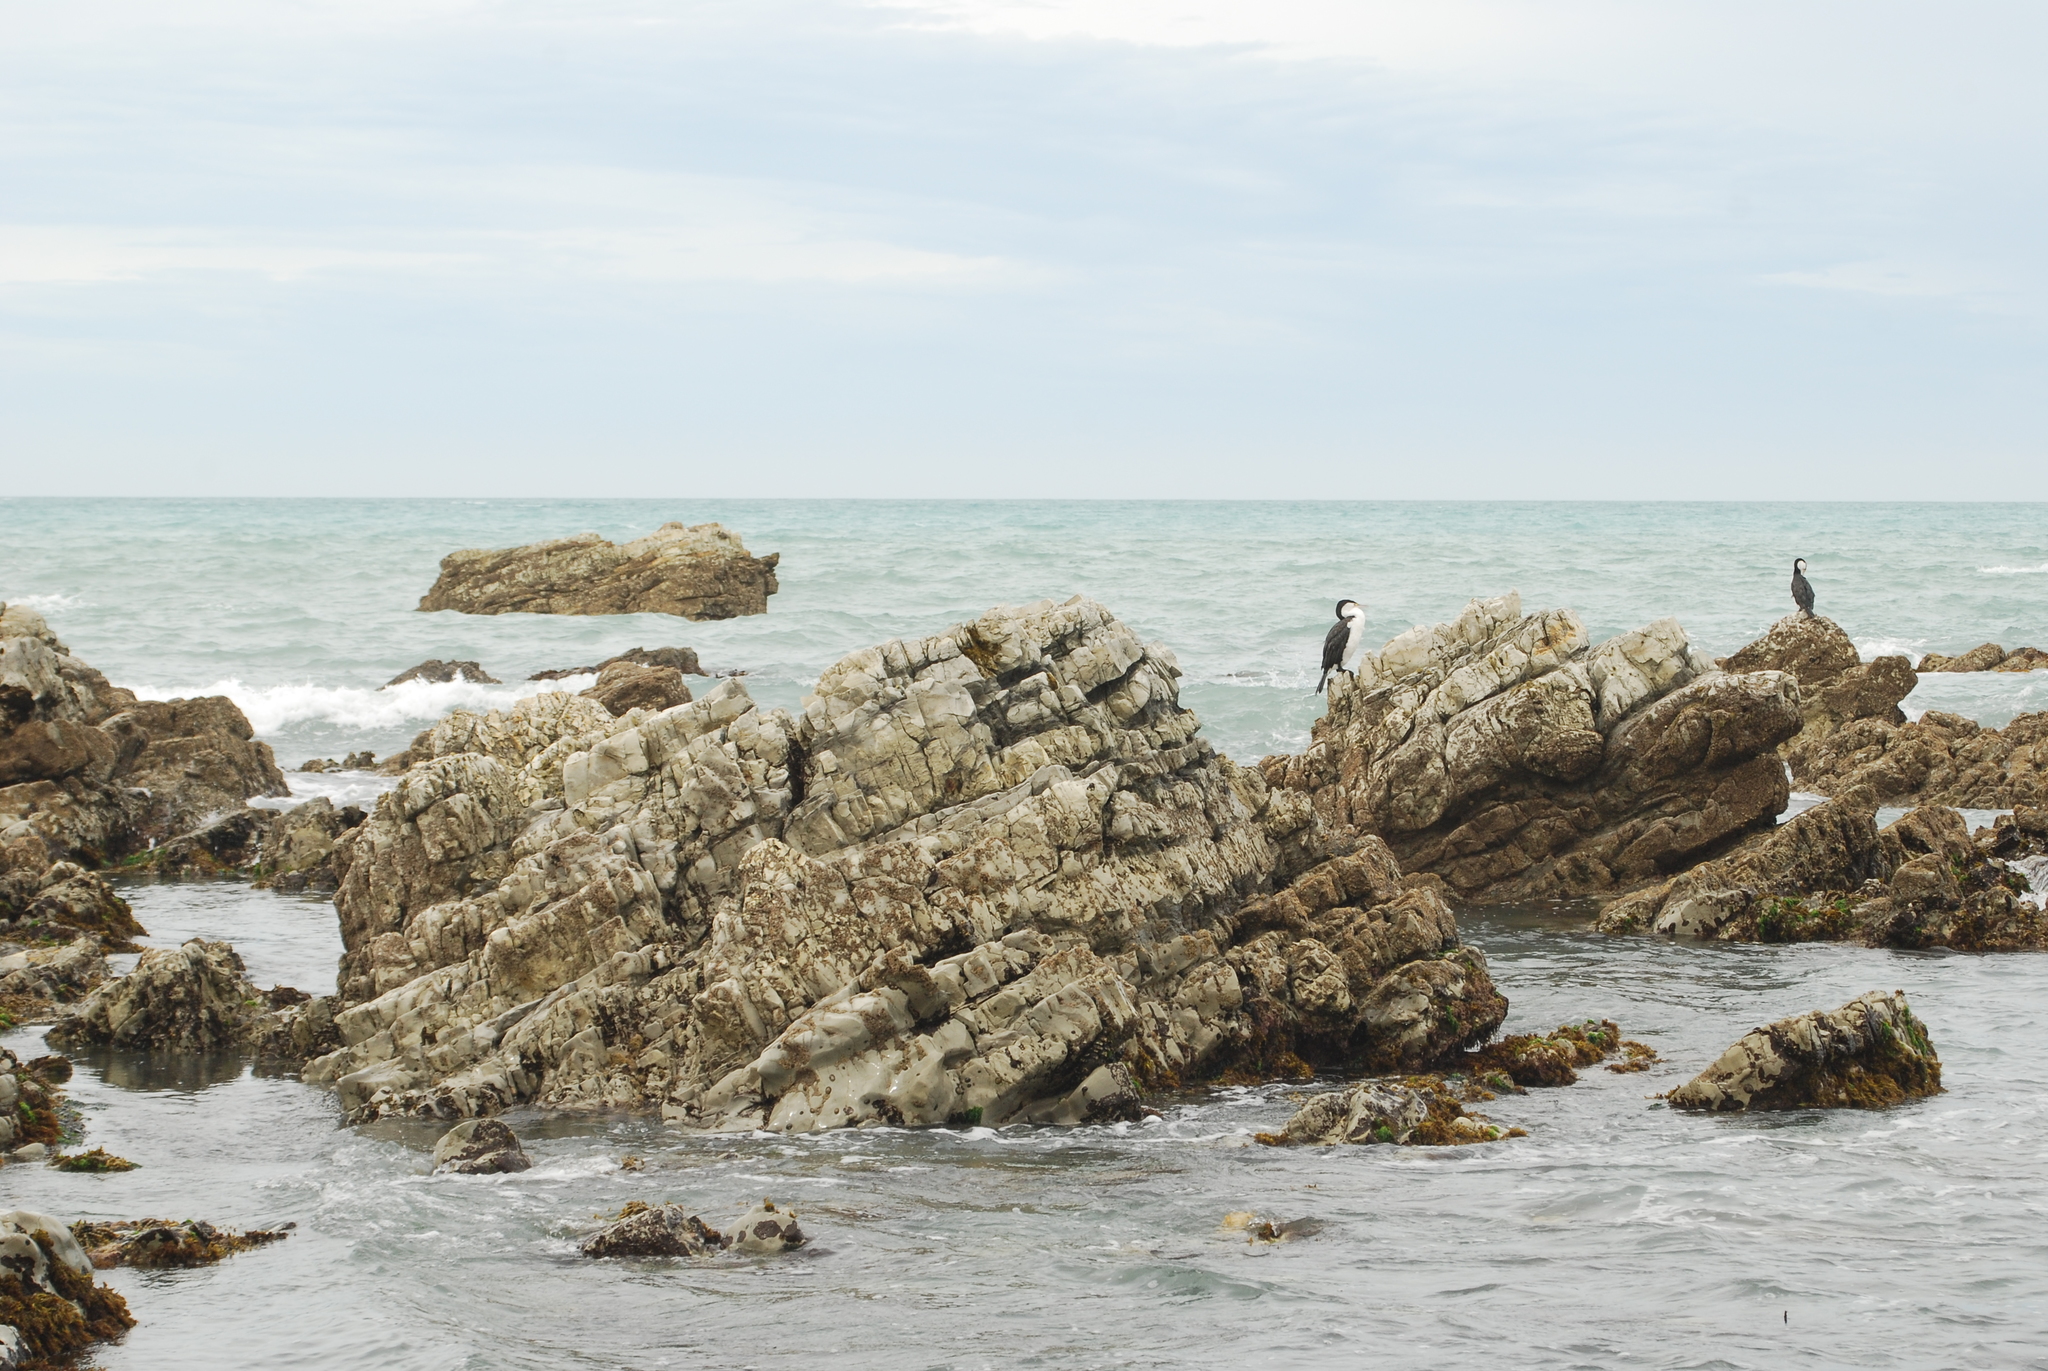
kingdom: Animalia
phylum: Chordata
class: Aves
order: Suliformes
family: Phalacrocoracidae
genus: Phalacrocorax
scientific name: Phalacrocorax varius
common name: Pied cormorant
